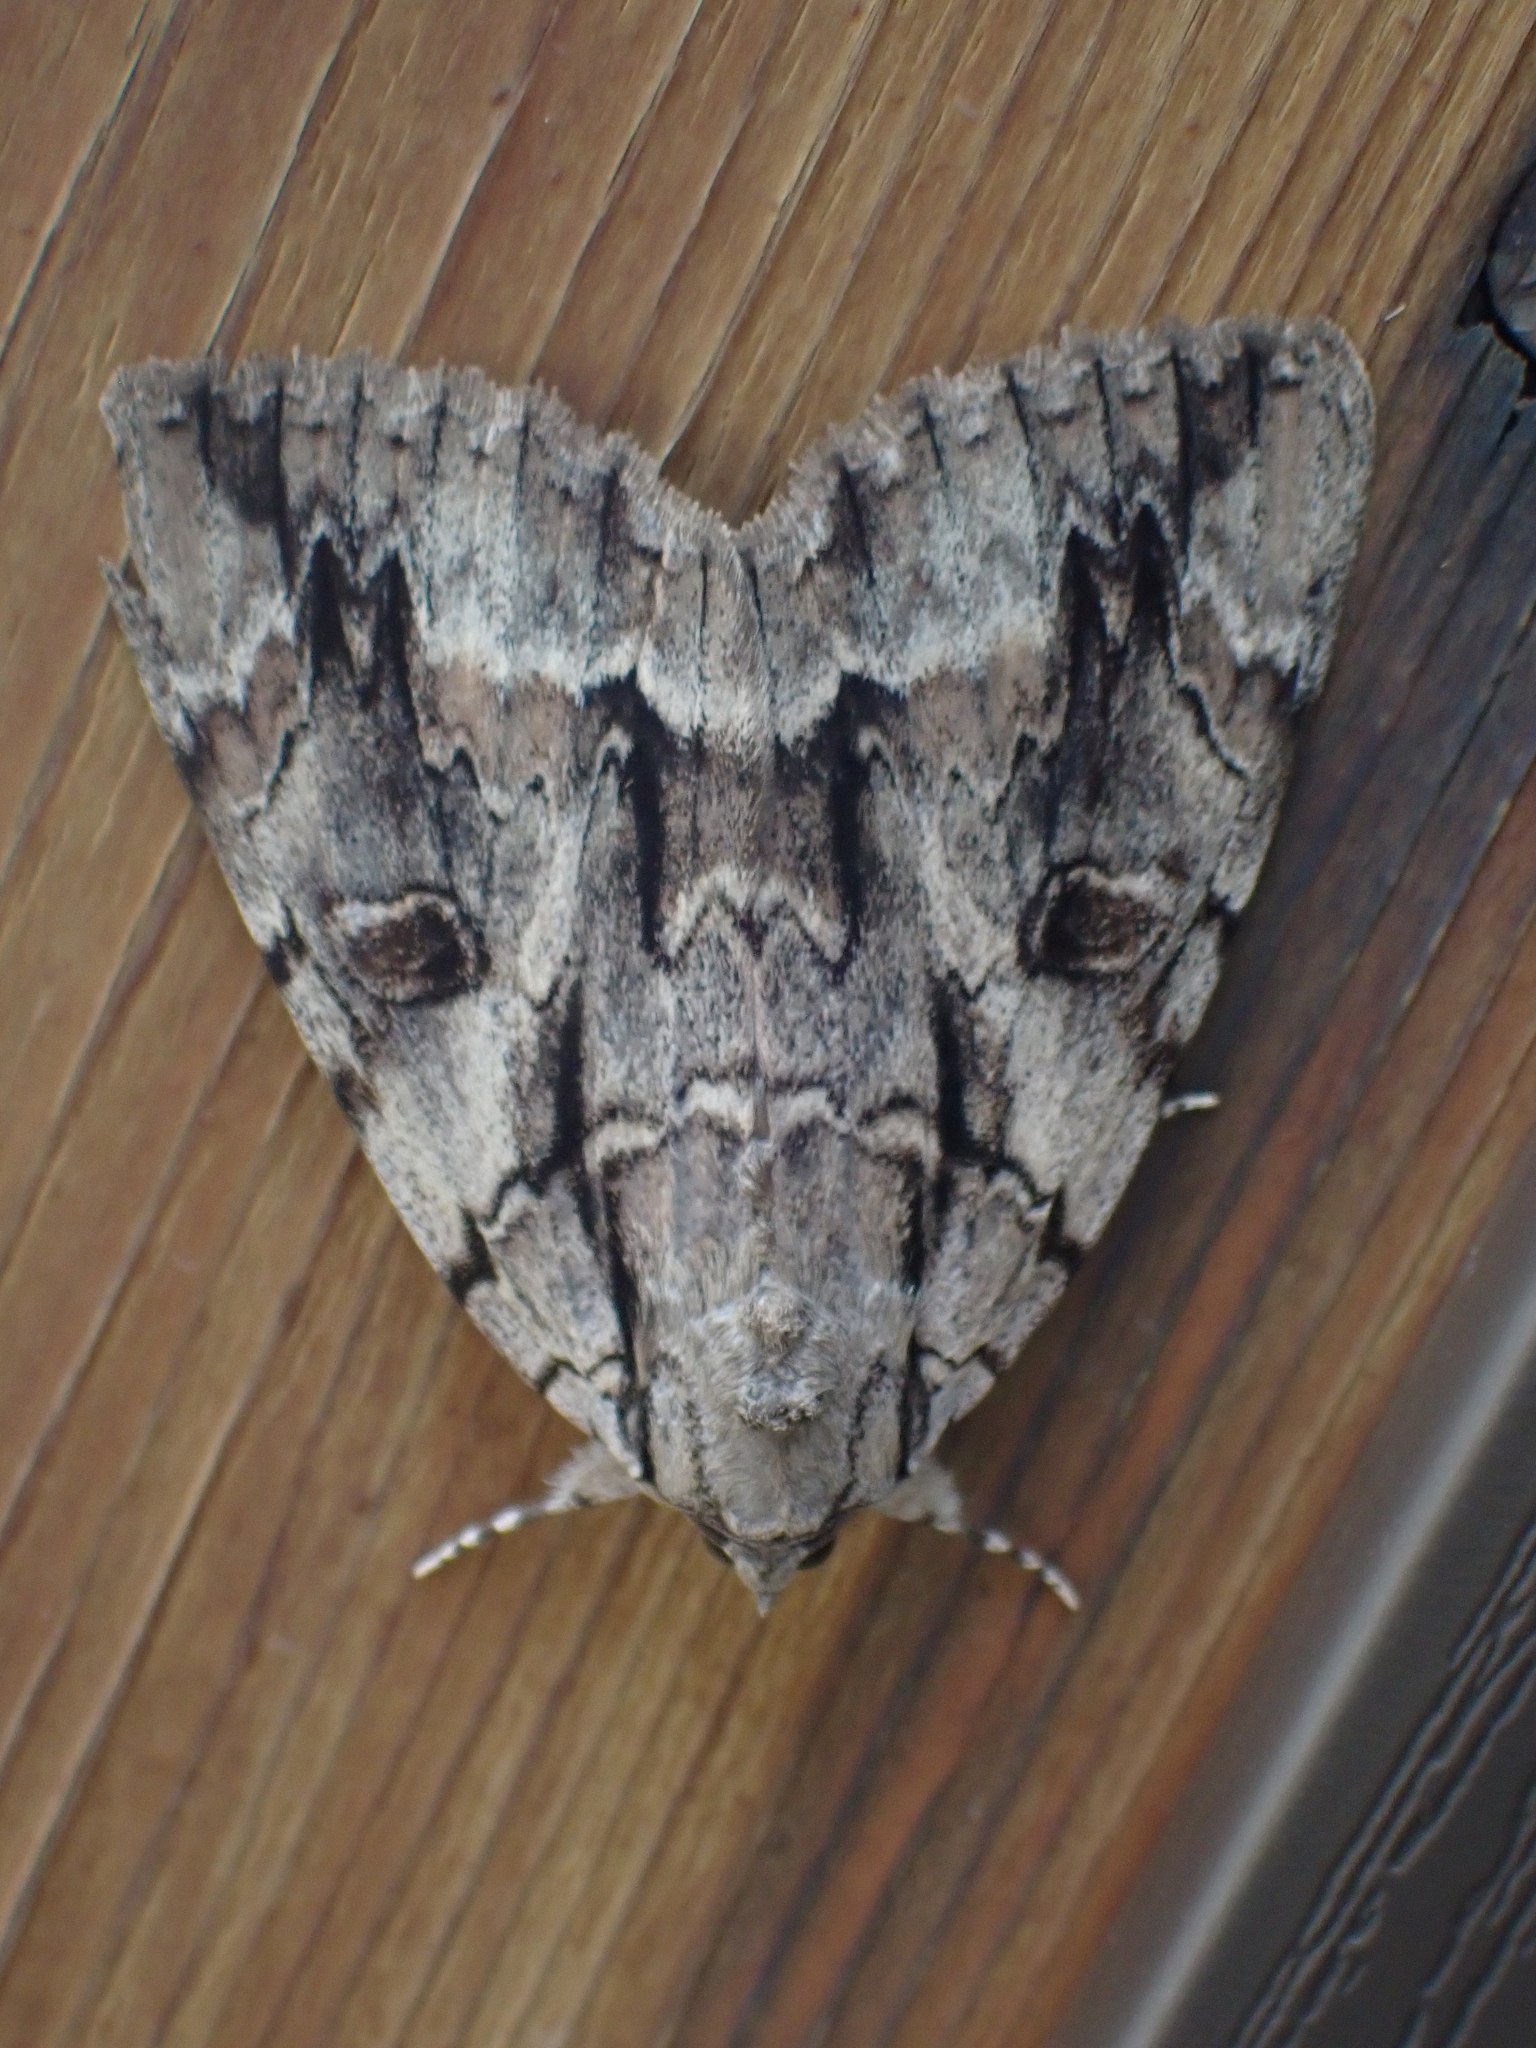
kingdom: Animalia
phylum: Arthropoda
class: Insecta
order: Lepidoptera
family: Erebidae
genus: Catocala
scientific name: Catocala retecta
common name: Yellow-gray underwing
